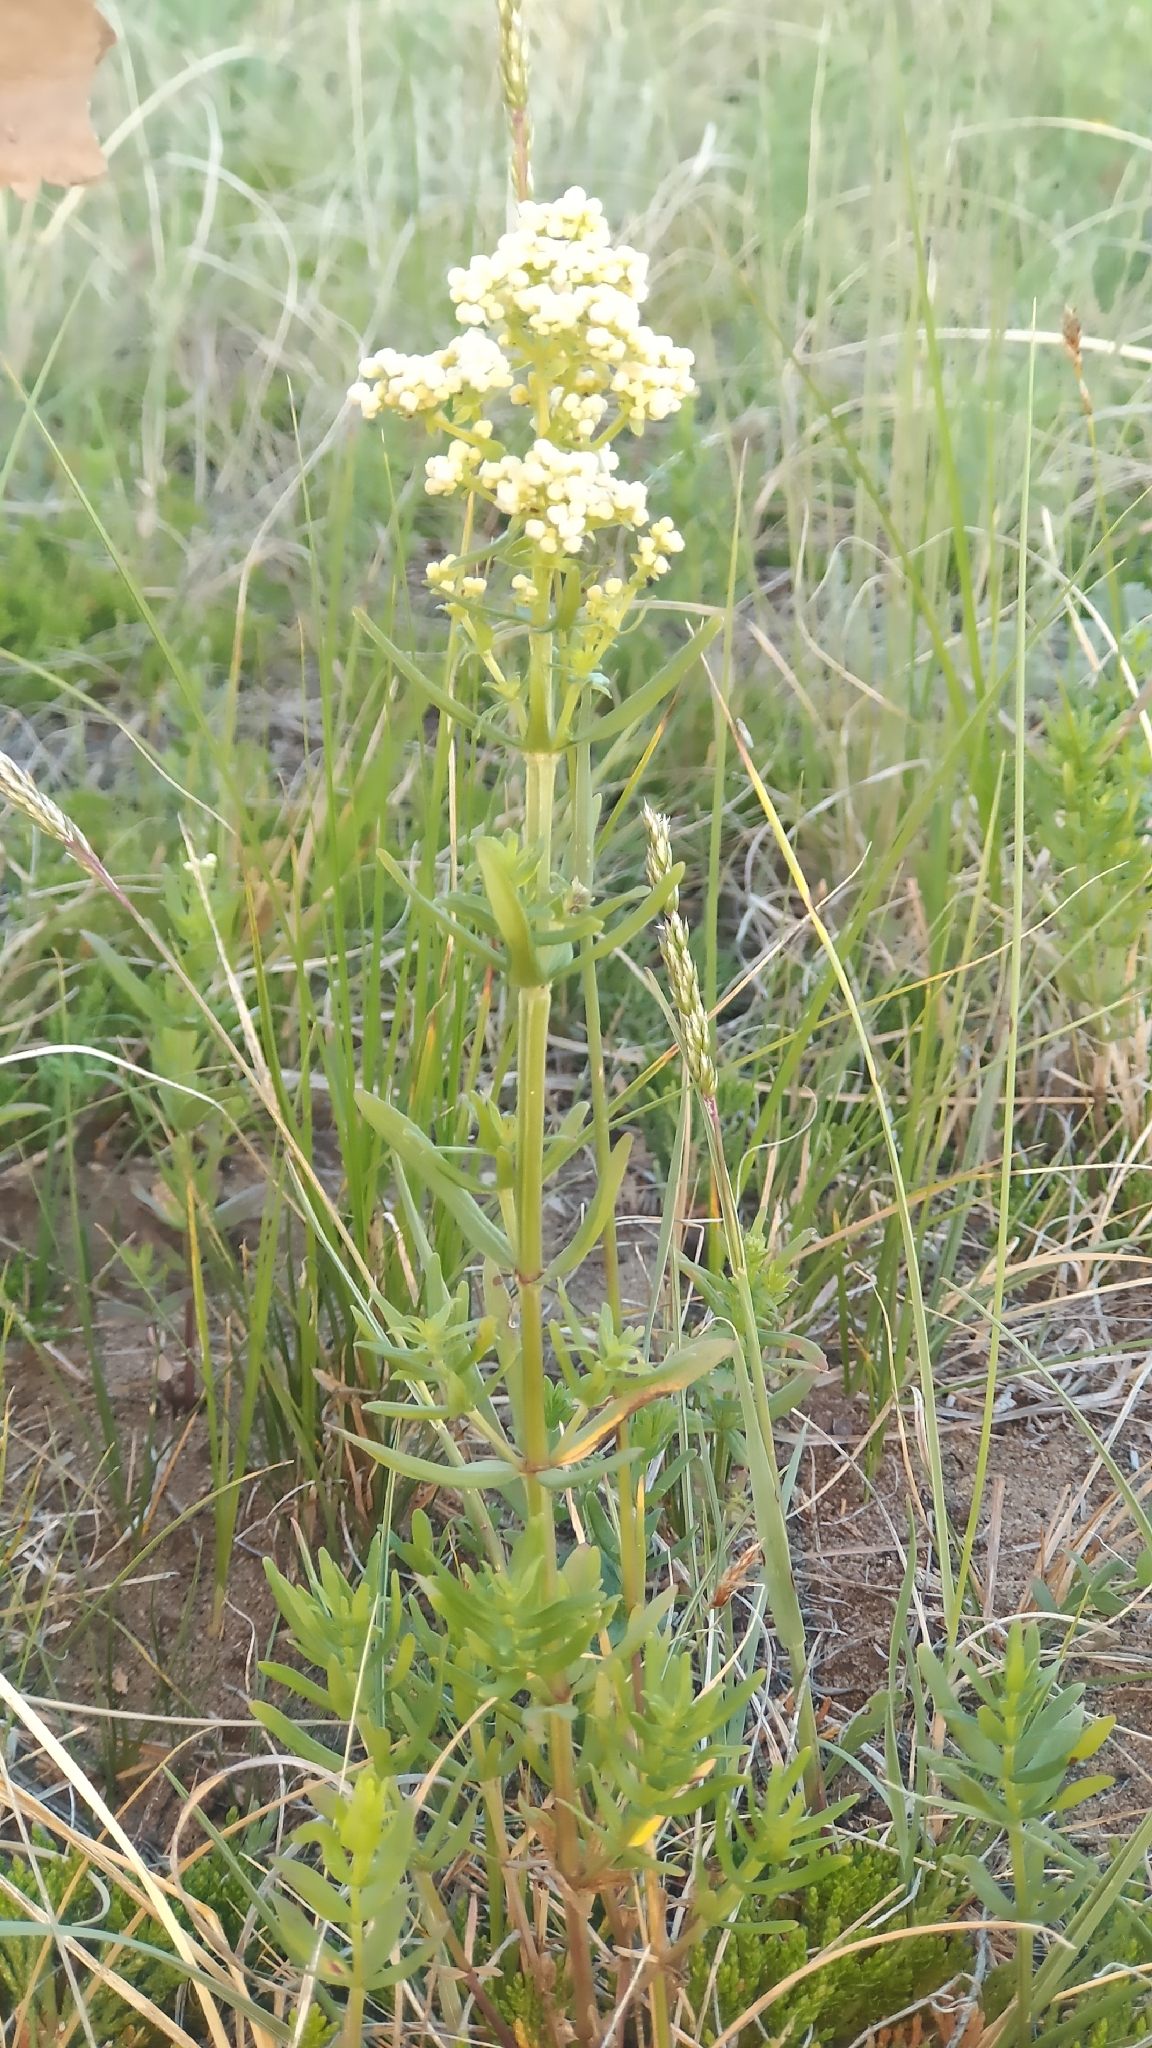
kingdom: Plantae
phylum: Tracheophyta
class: Magnoliopsida
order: Gentianales
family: Rubiaceae
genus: Galium
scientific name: Galium boreale
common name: Northern bedstraw
